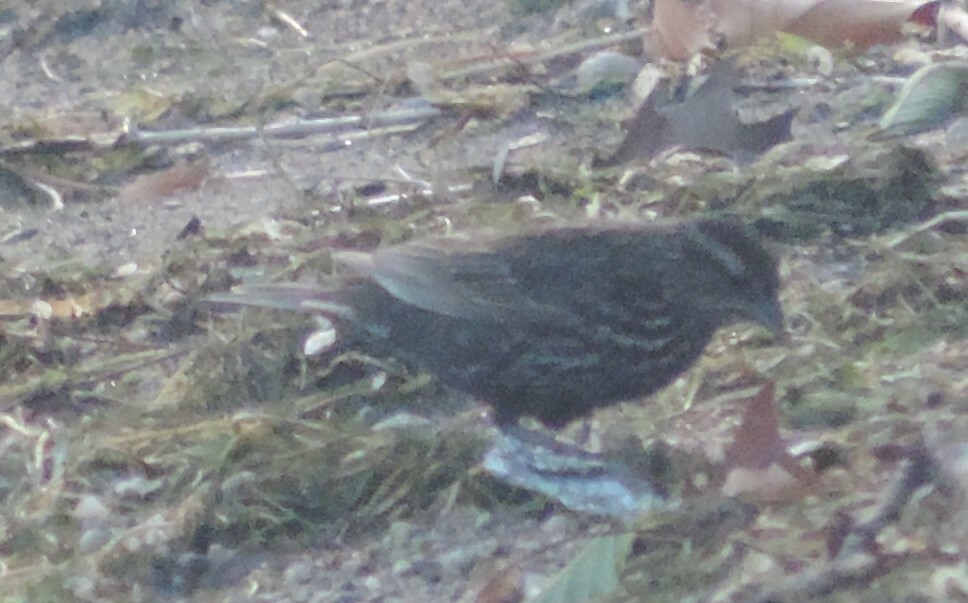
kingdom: Animalia
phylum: Chordata
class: Aves
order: Passeriformes
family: Icteridae
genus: Agelaius
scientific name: Agelaius phoeniceus
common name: Red-winged blackbird
